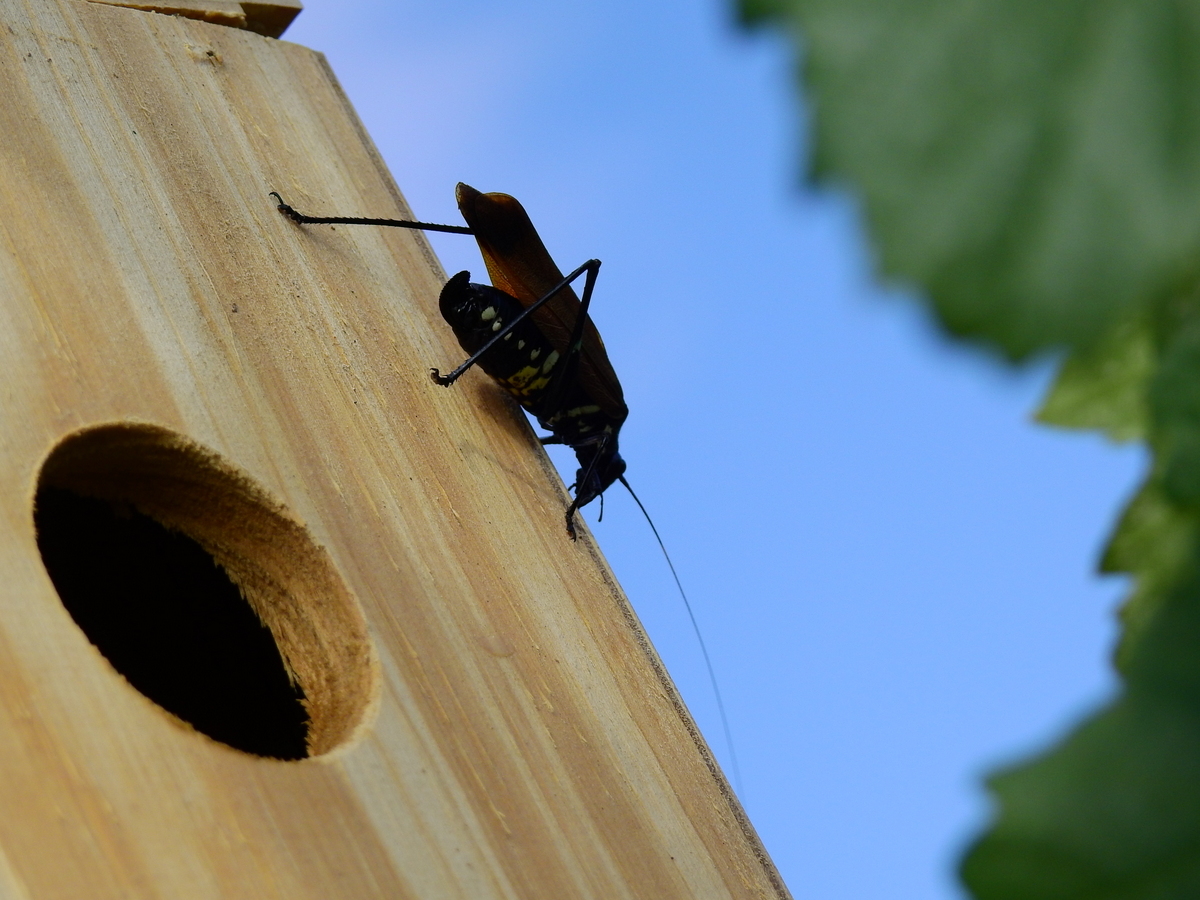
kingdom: Animalia
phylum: Arthropoda
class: Insecta
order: Orthoptera
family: Tettigoniidae
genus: Scaphura
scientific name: Scaphura elegans
